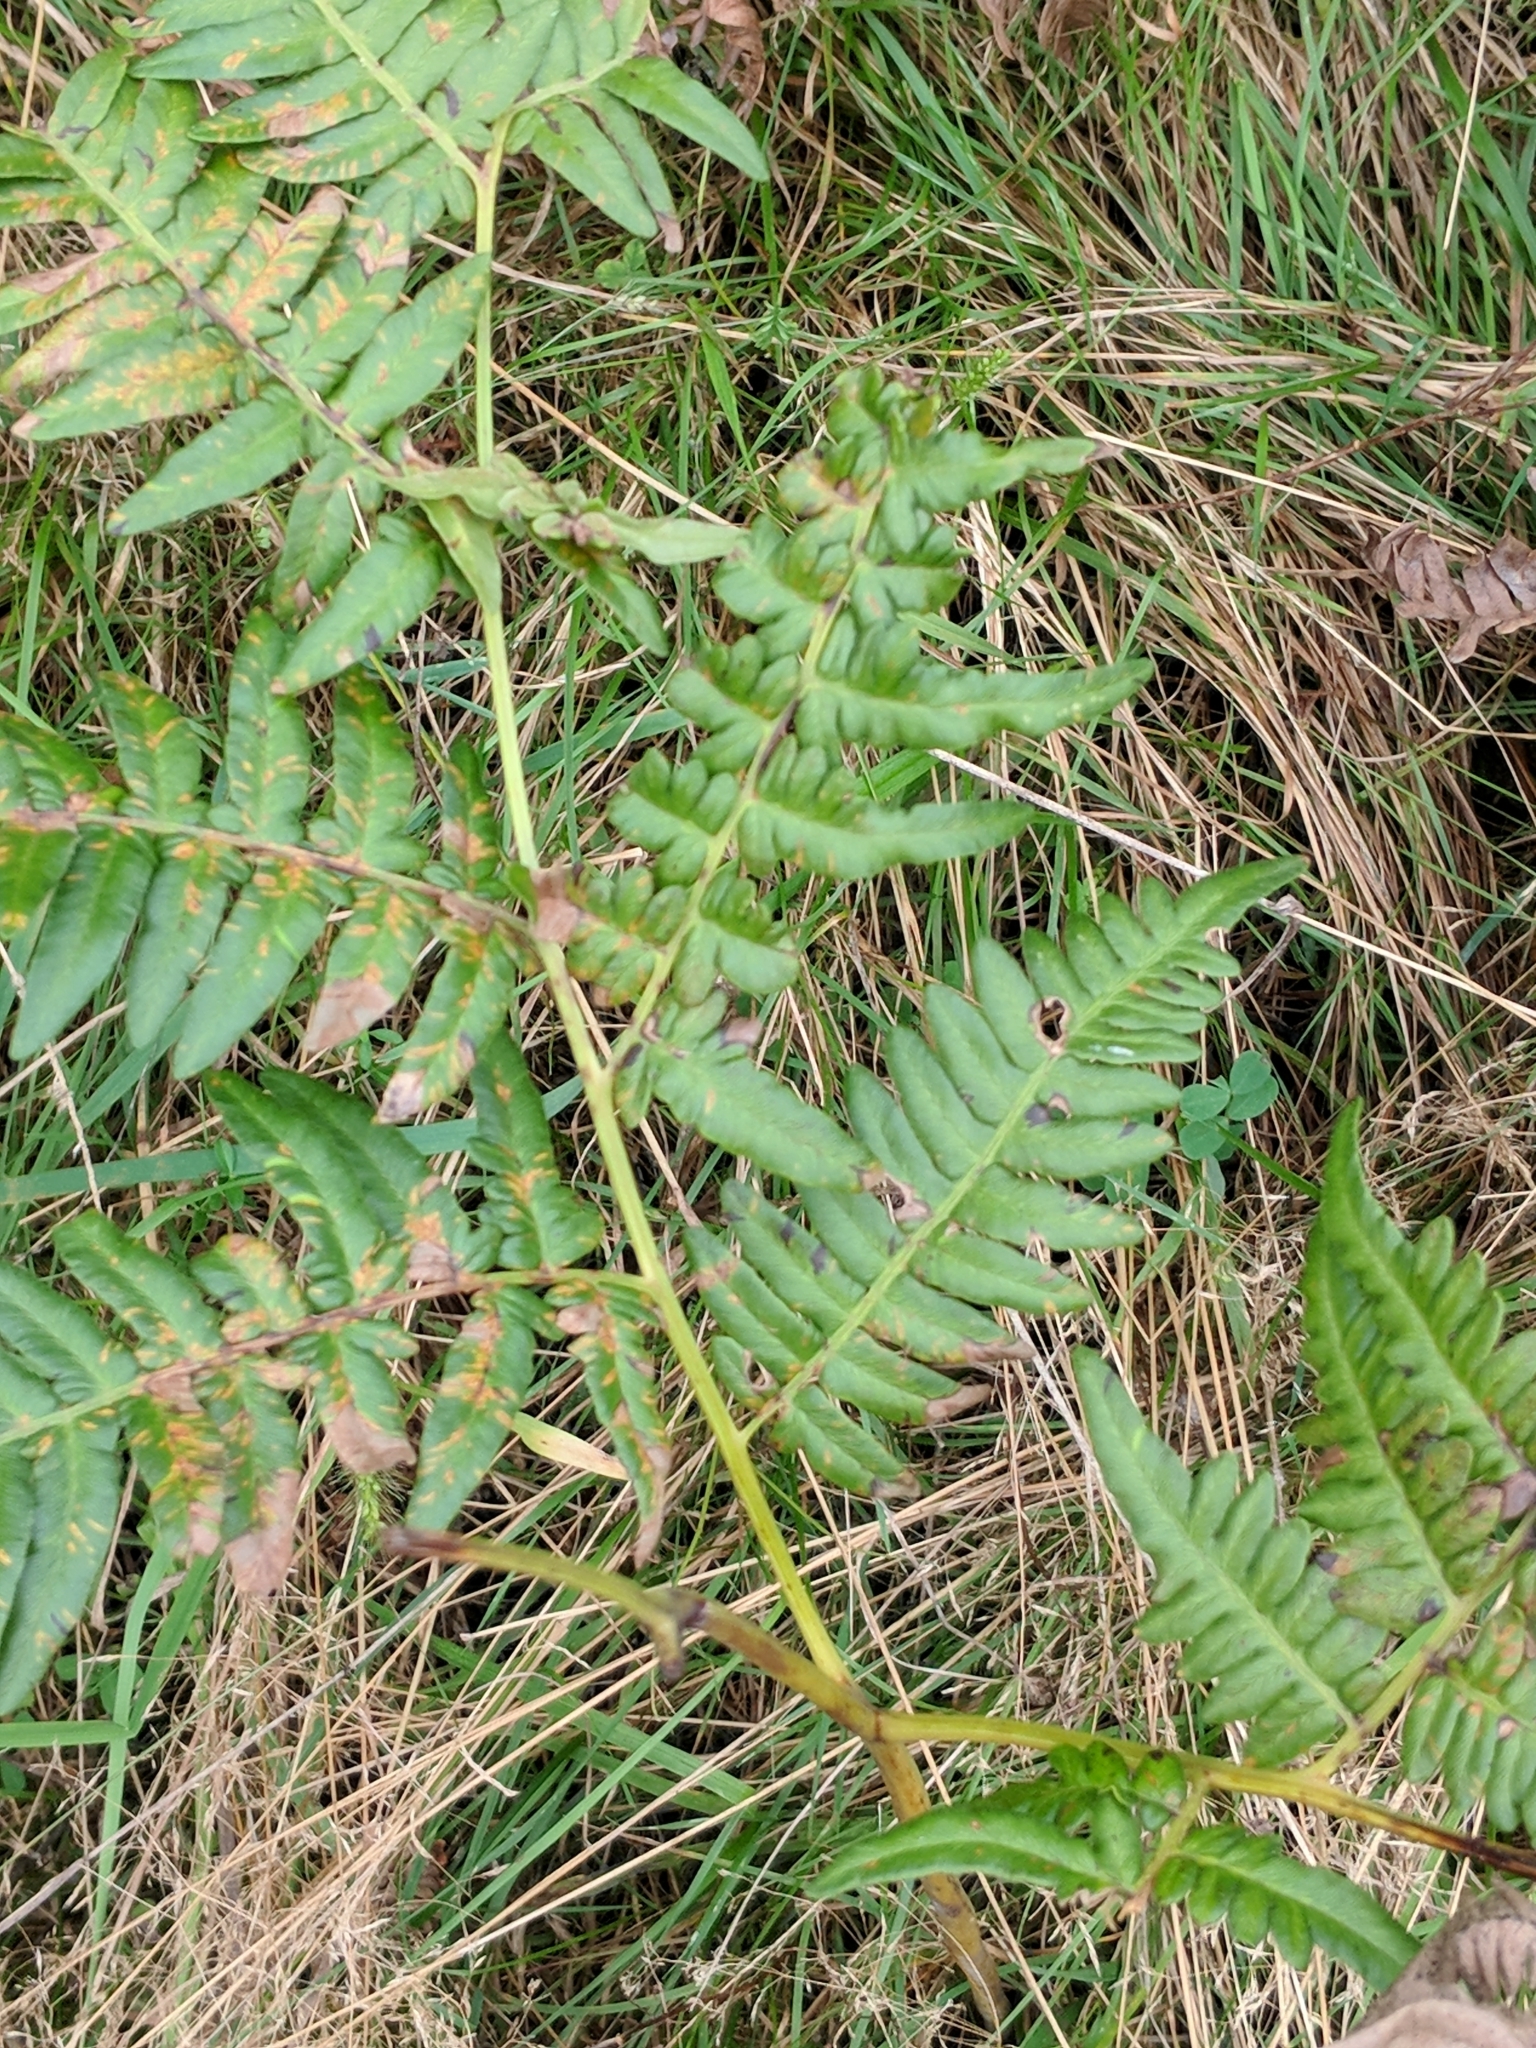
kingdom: Plantae
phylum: Tracheophyta
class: Polypodiopsida
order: Polypodiales
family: Dennstaedtiaceae
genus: Pteridium
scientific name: Pteridium aquilinum
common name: Bracken
